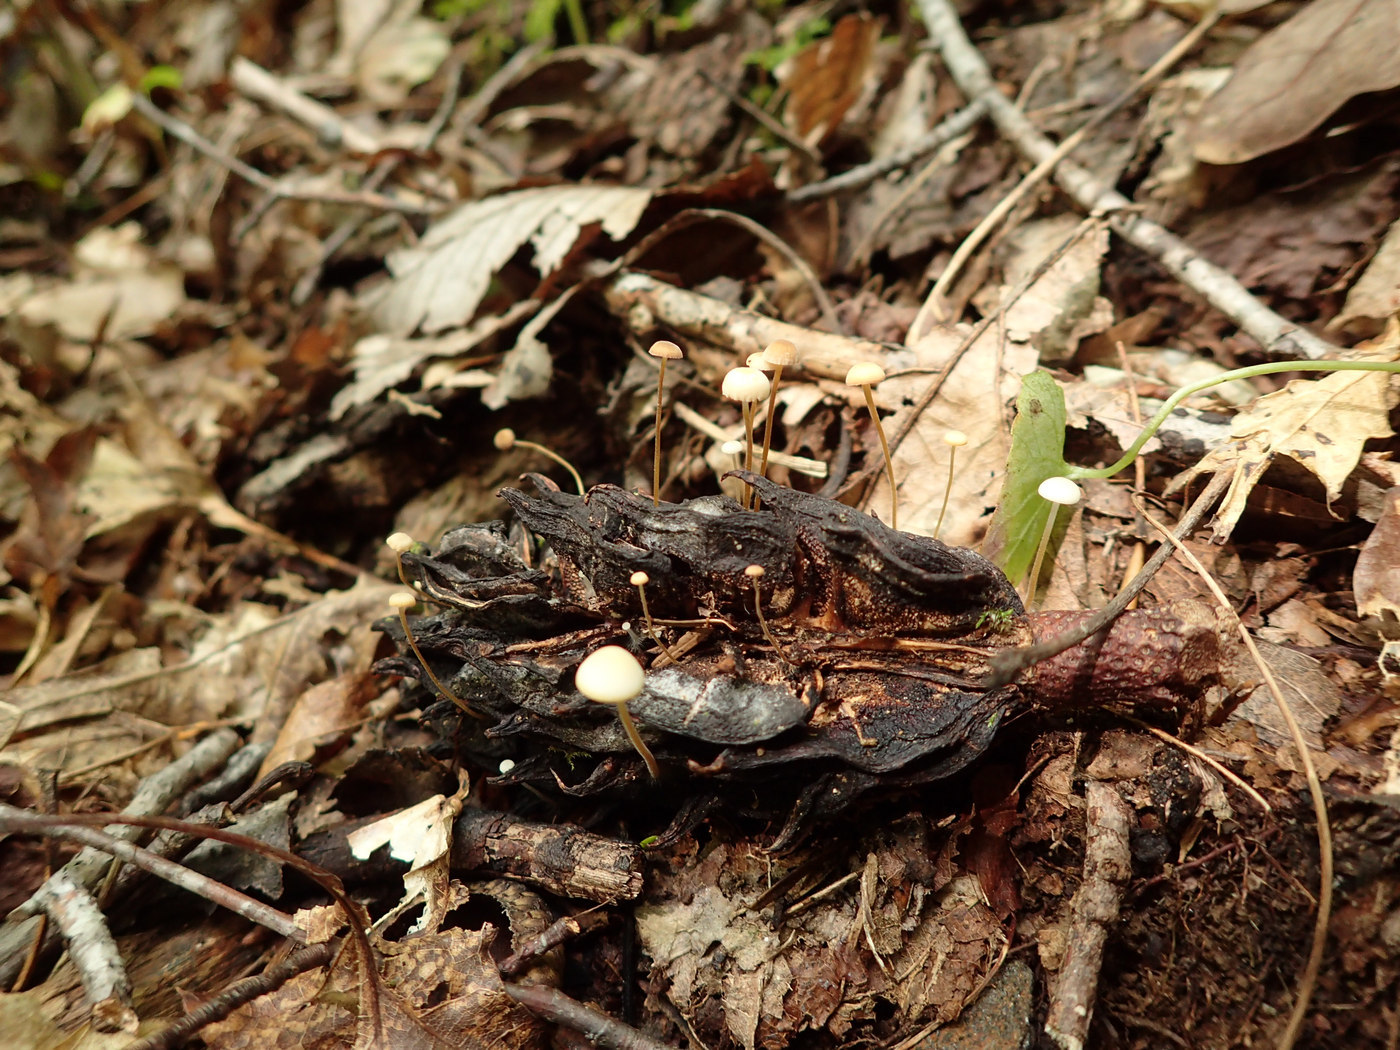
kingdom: Fungi
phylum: Basidiomycota
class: Agaricomycetes
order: Agaricales
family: Physalacriaceae
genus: Strobilurus
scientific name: Strobilurus conigenoides
